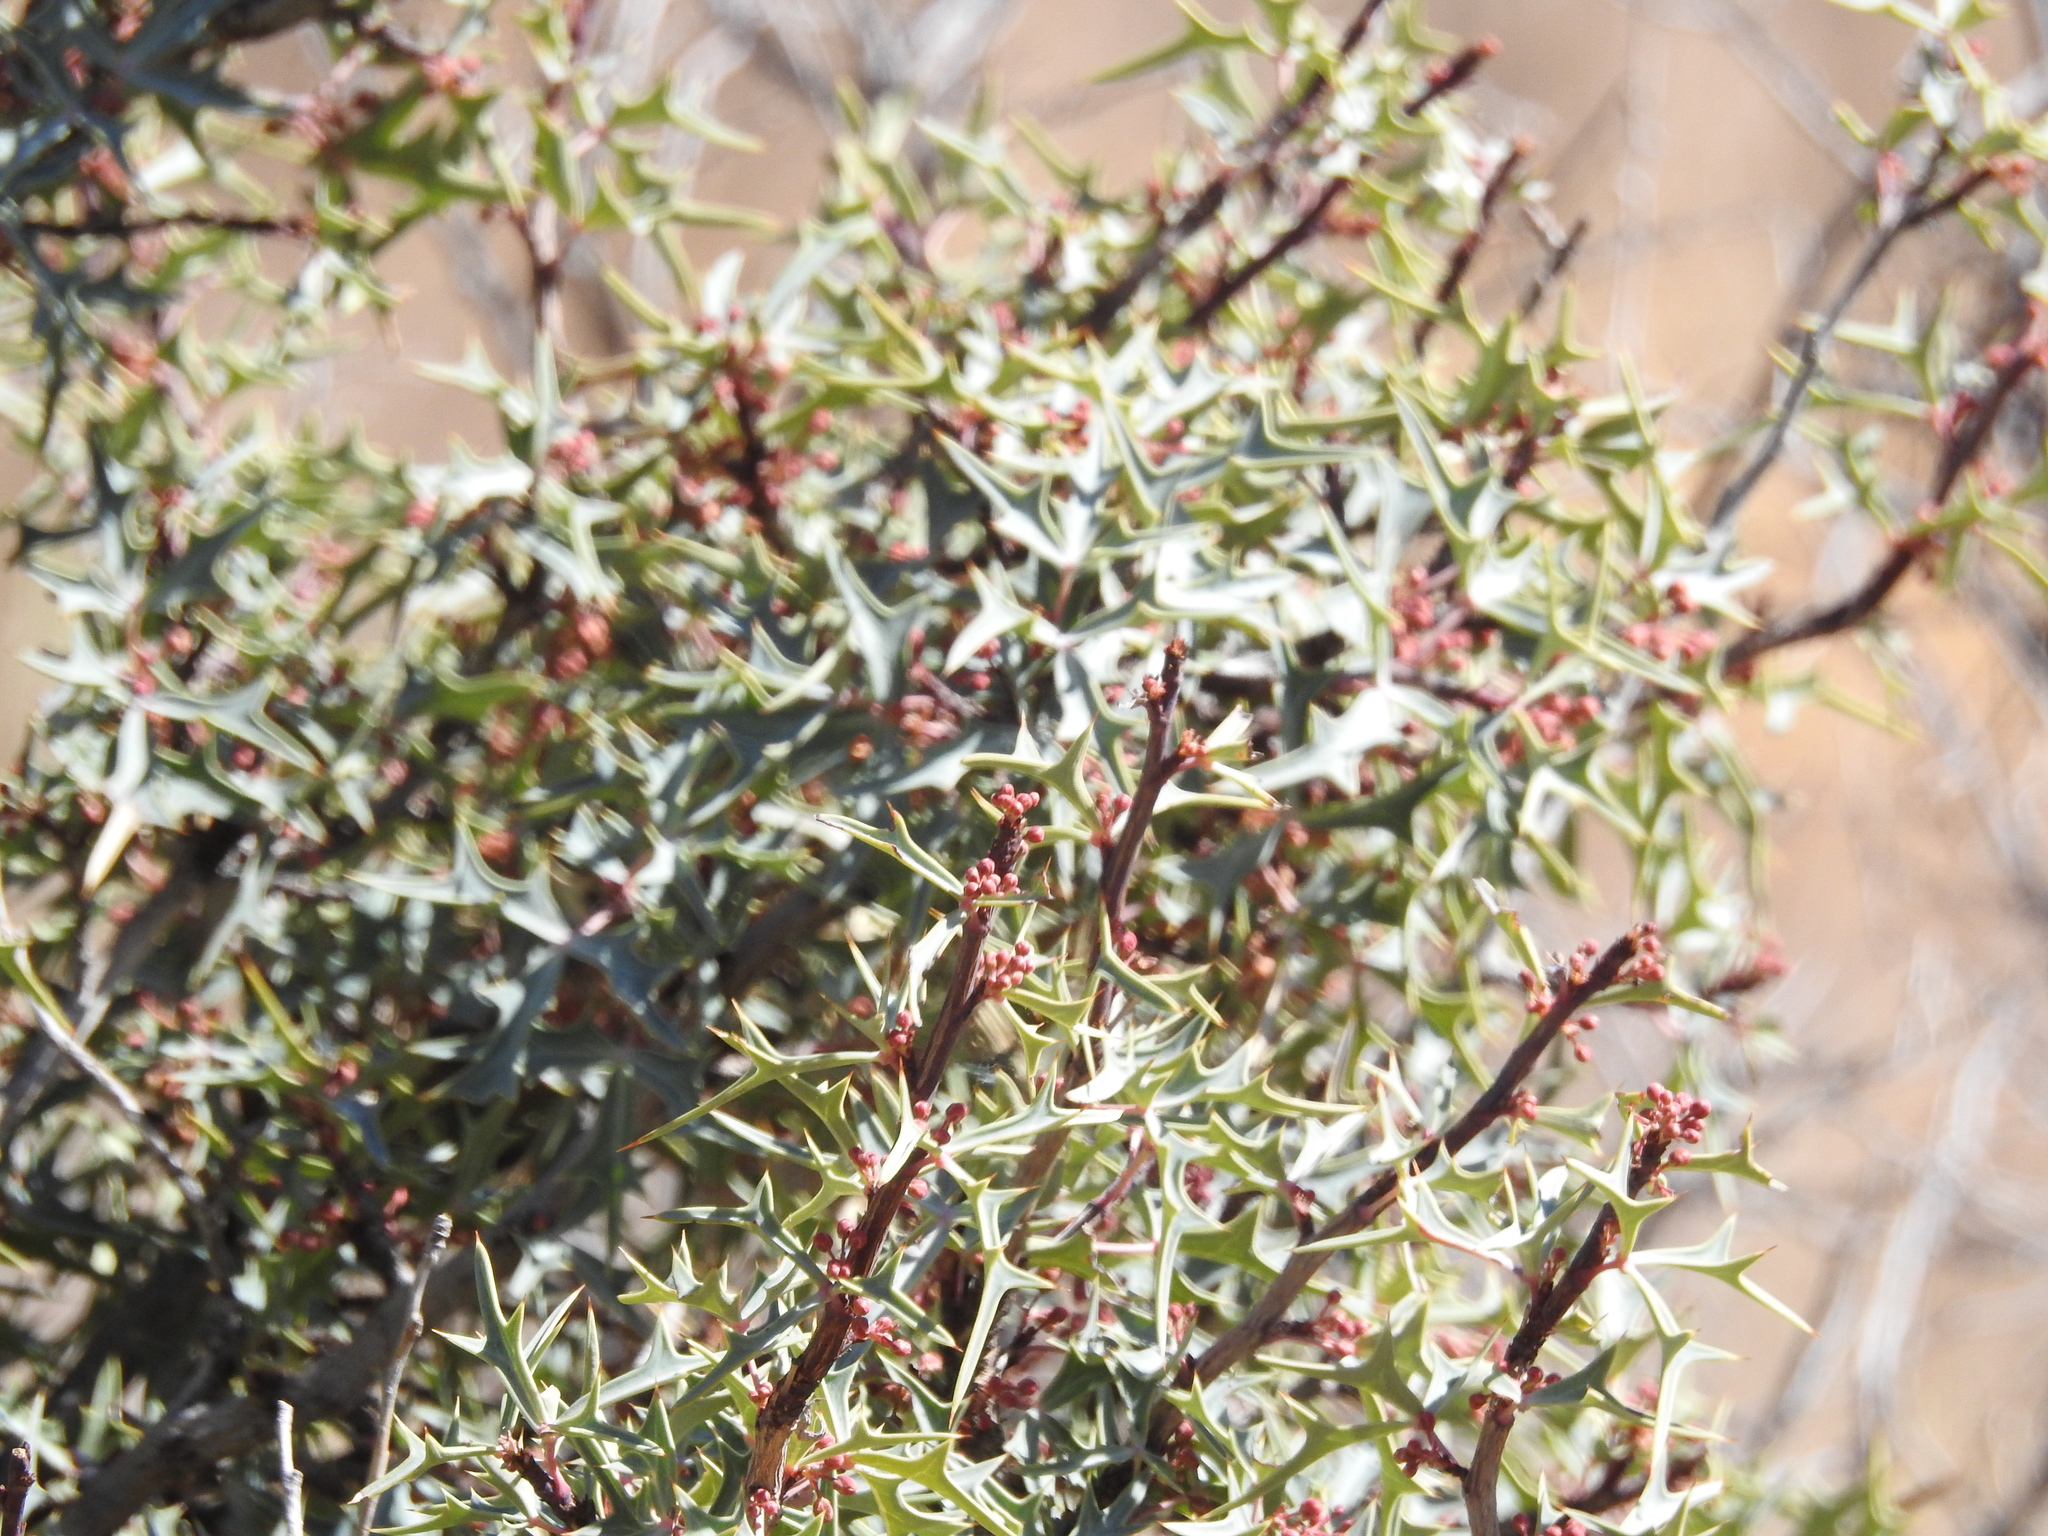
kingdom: Plantae
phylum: Tracheophyta
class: Magnoliopsida
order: Ranunculales
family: Berberidaceae
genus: Alloberberis
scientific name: Alloberberis trifoliolata
